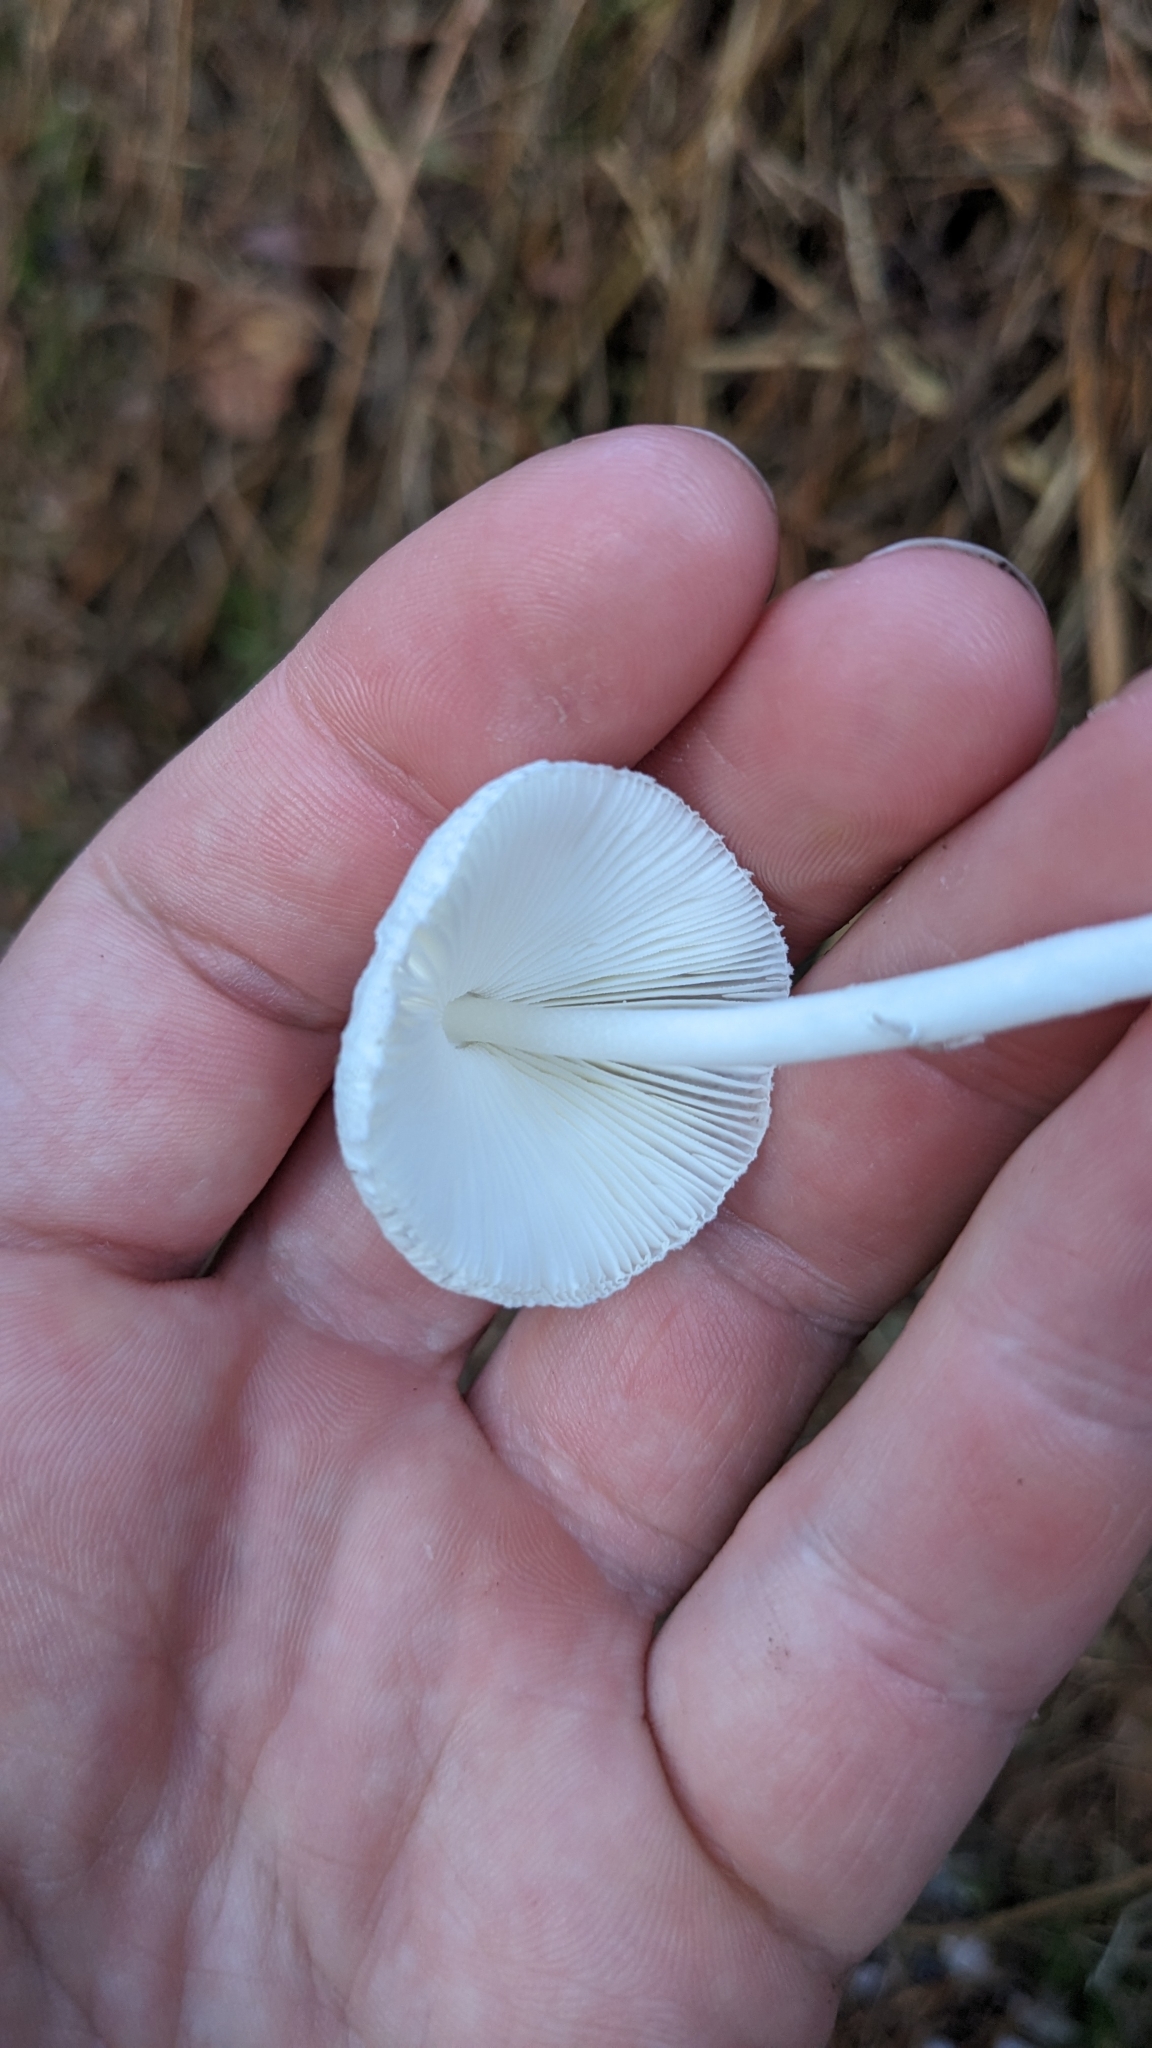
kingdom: Fungi
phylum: Basidiomycota
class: Agaricomycetes
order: Agaricales
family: Agaricaceae
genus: Leucocoprinus
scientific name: Leucocoprinus brebissonii
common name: Skullcap dapperling
